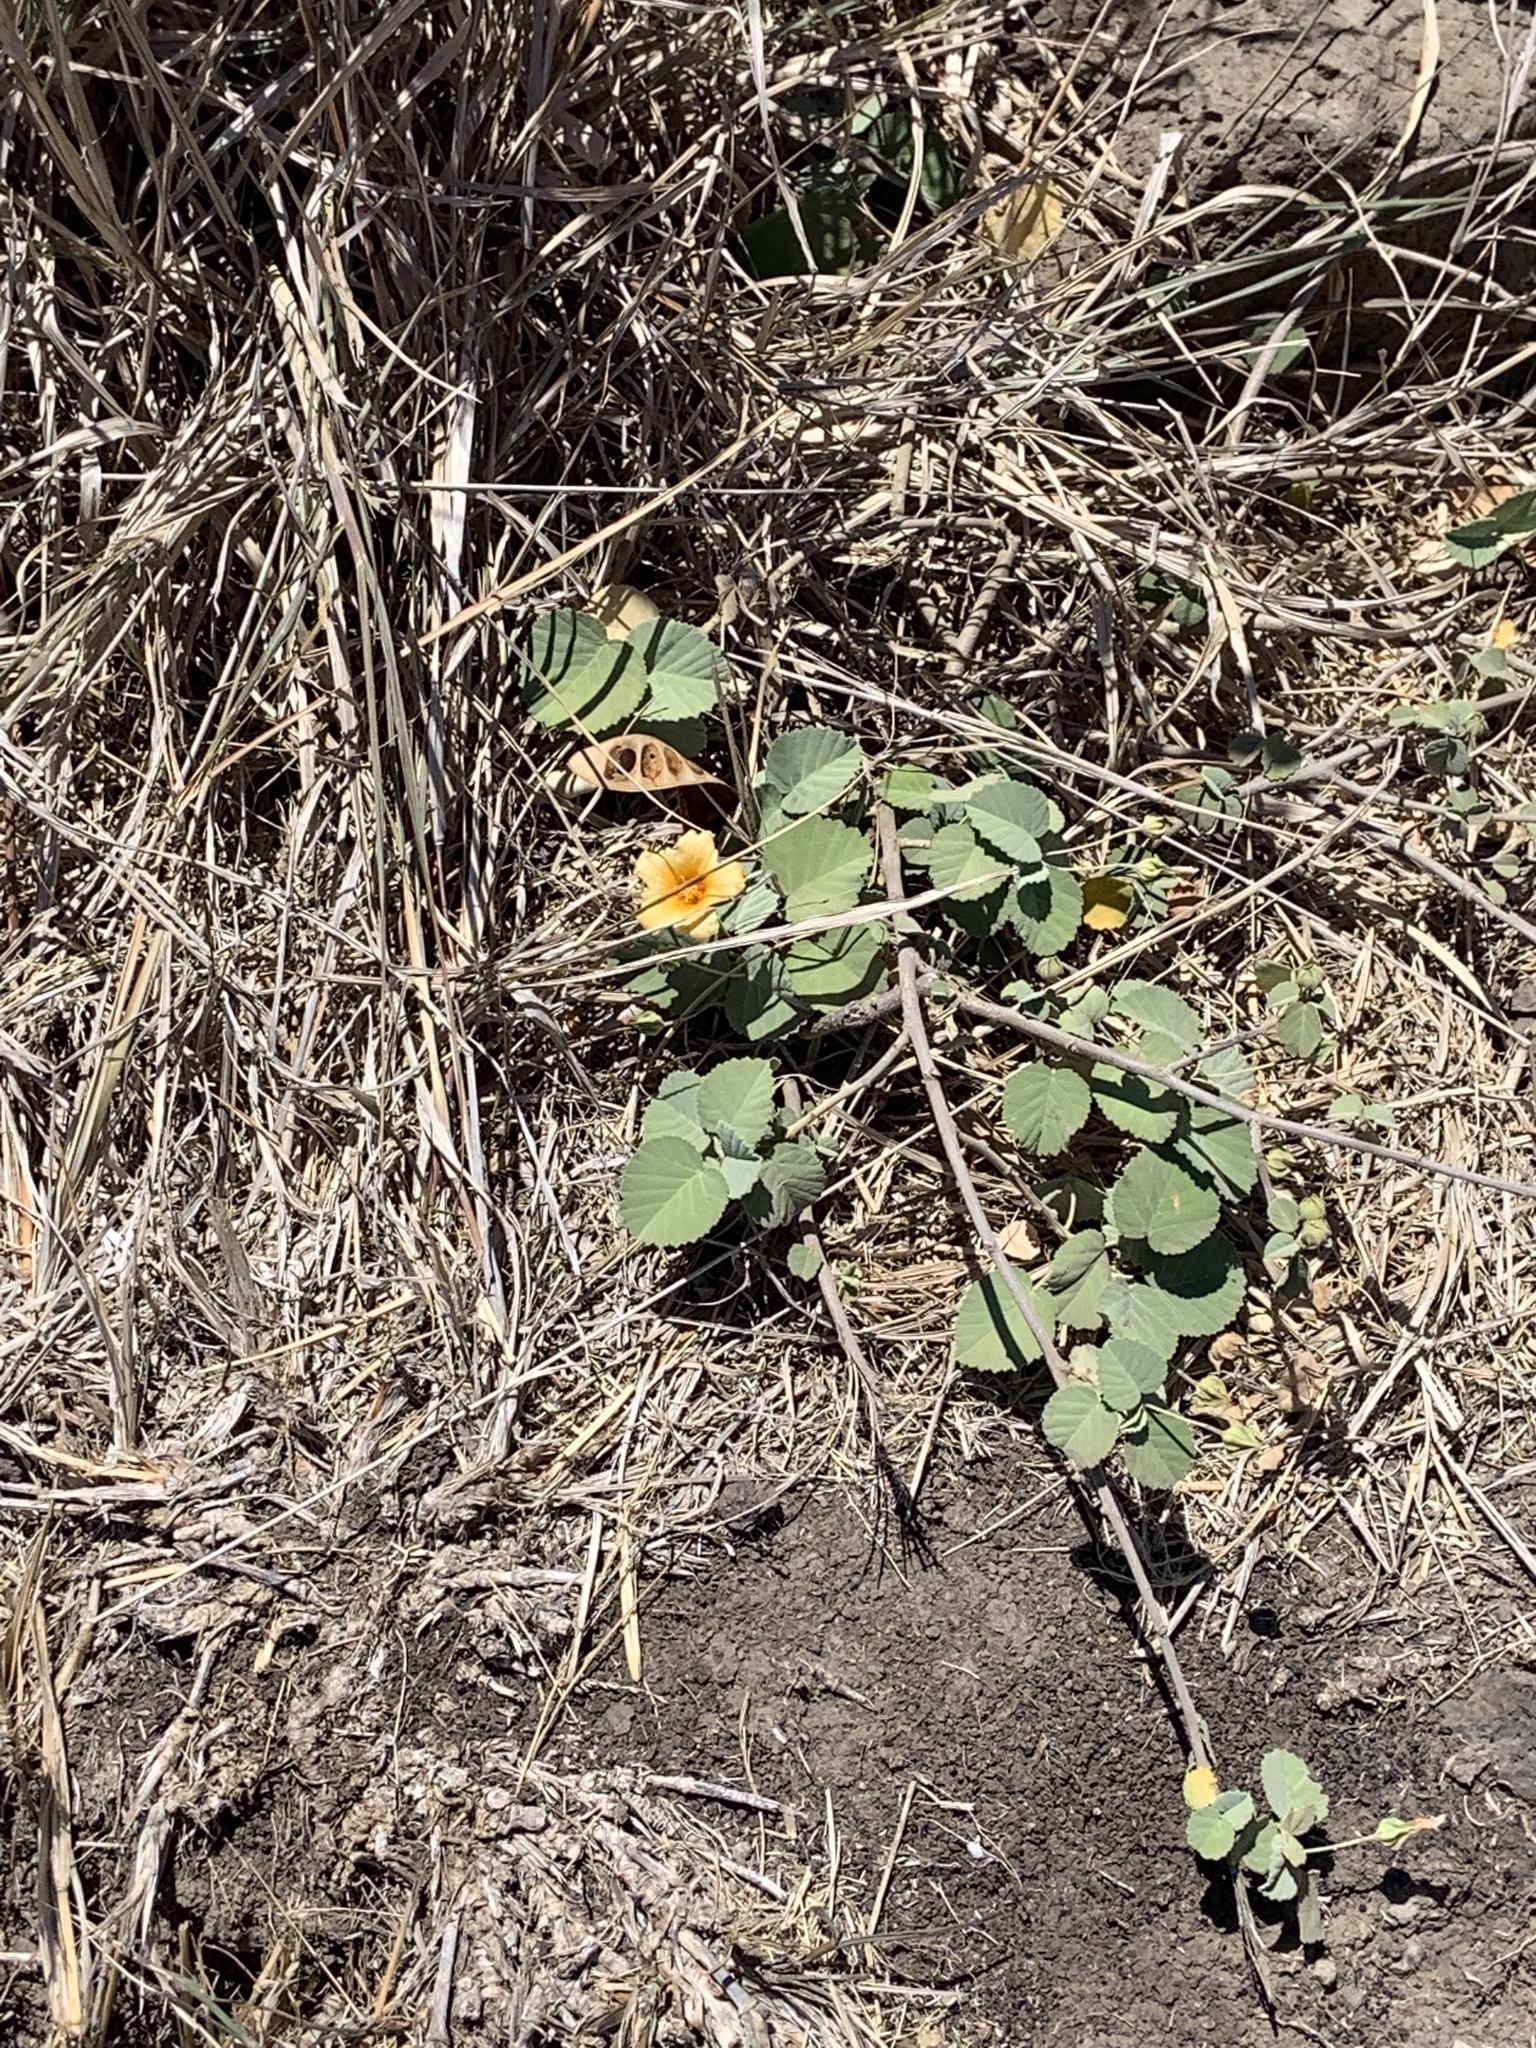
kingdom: Plantae
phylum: Tracheophyta
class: Magnoliopsida
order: Malvales
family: Malvaceae
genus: Sida
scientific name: Sida fallax
